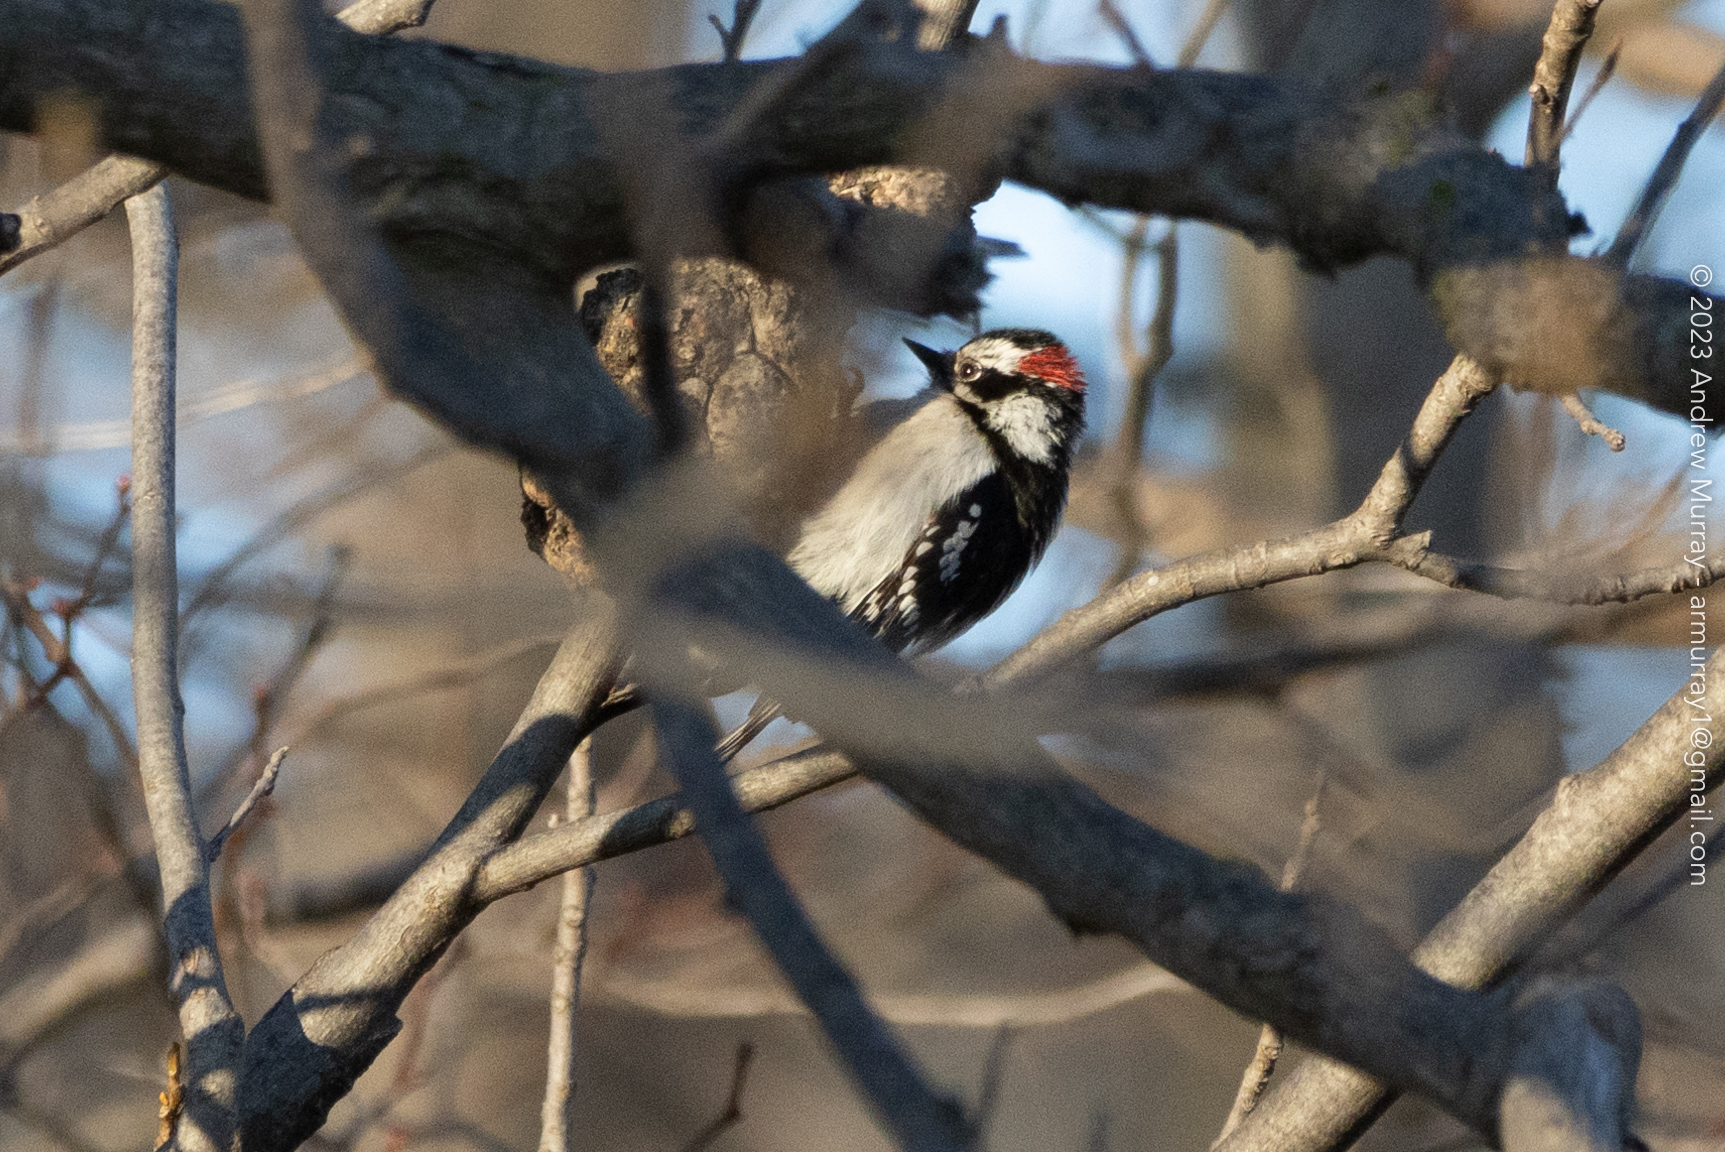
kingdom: Animalia
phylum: Chordata
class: Aves
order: Piciformes
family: Picidae
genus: Dryobates
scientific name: Dryobates pubescens
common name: Downy woodpecker
